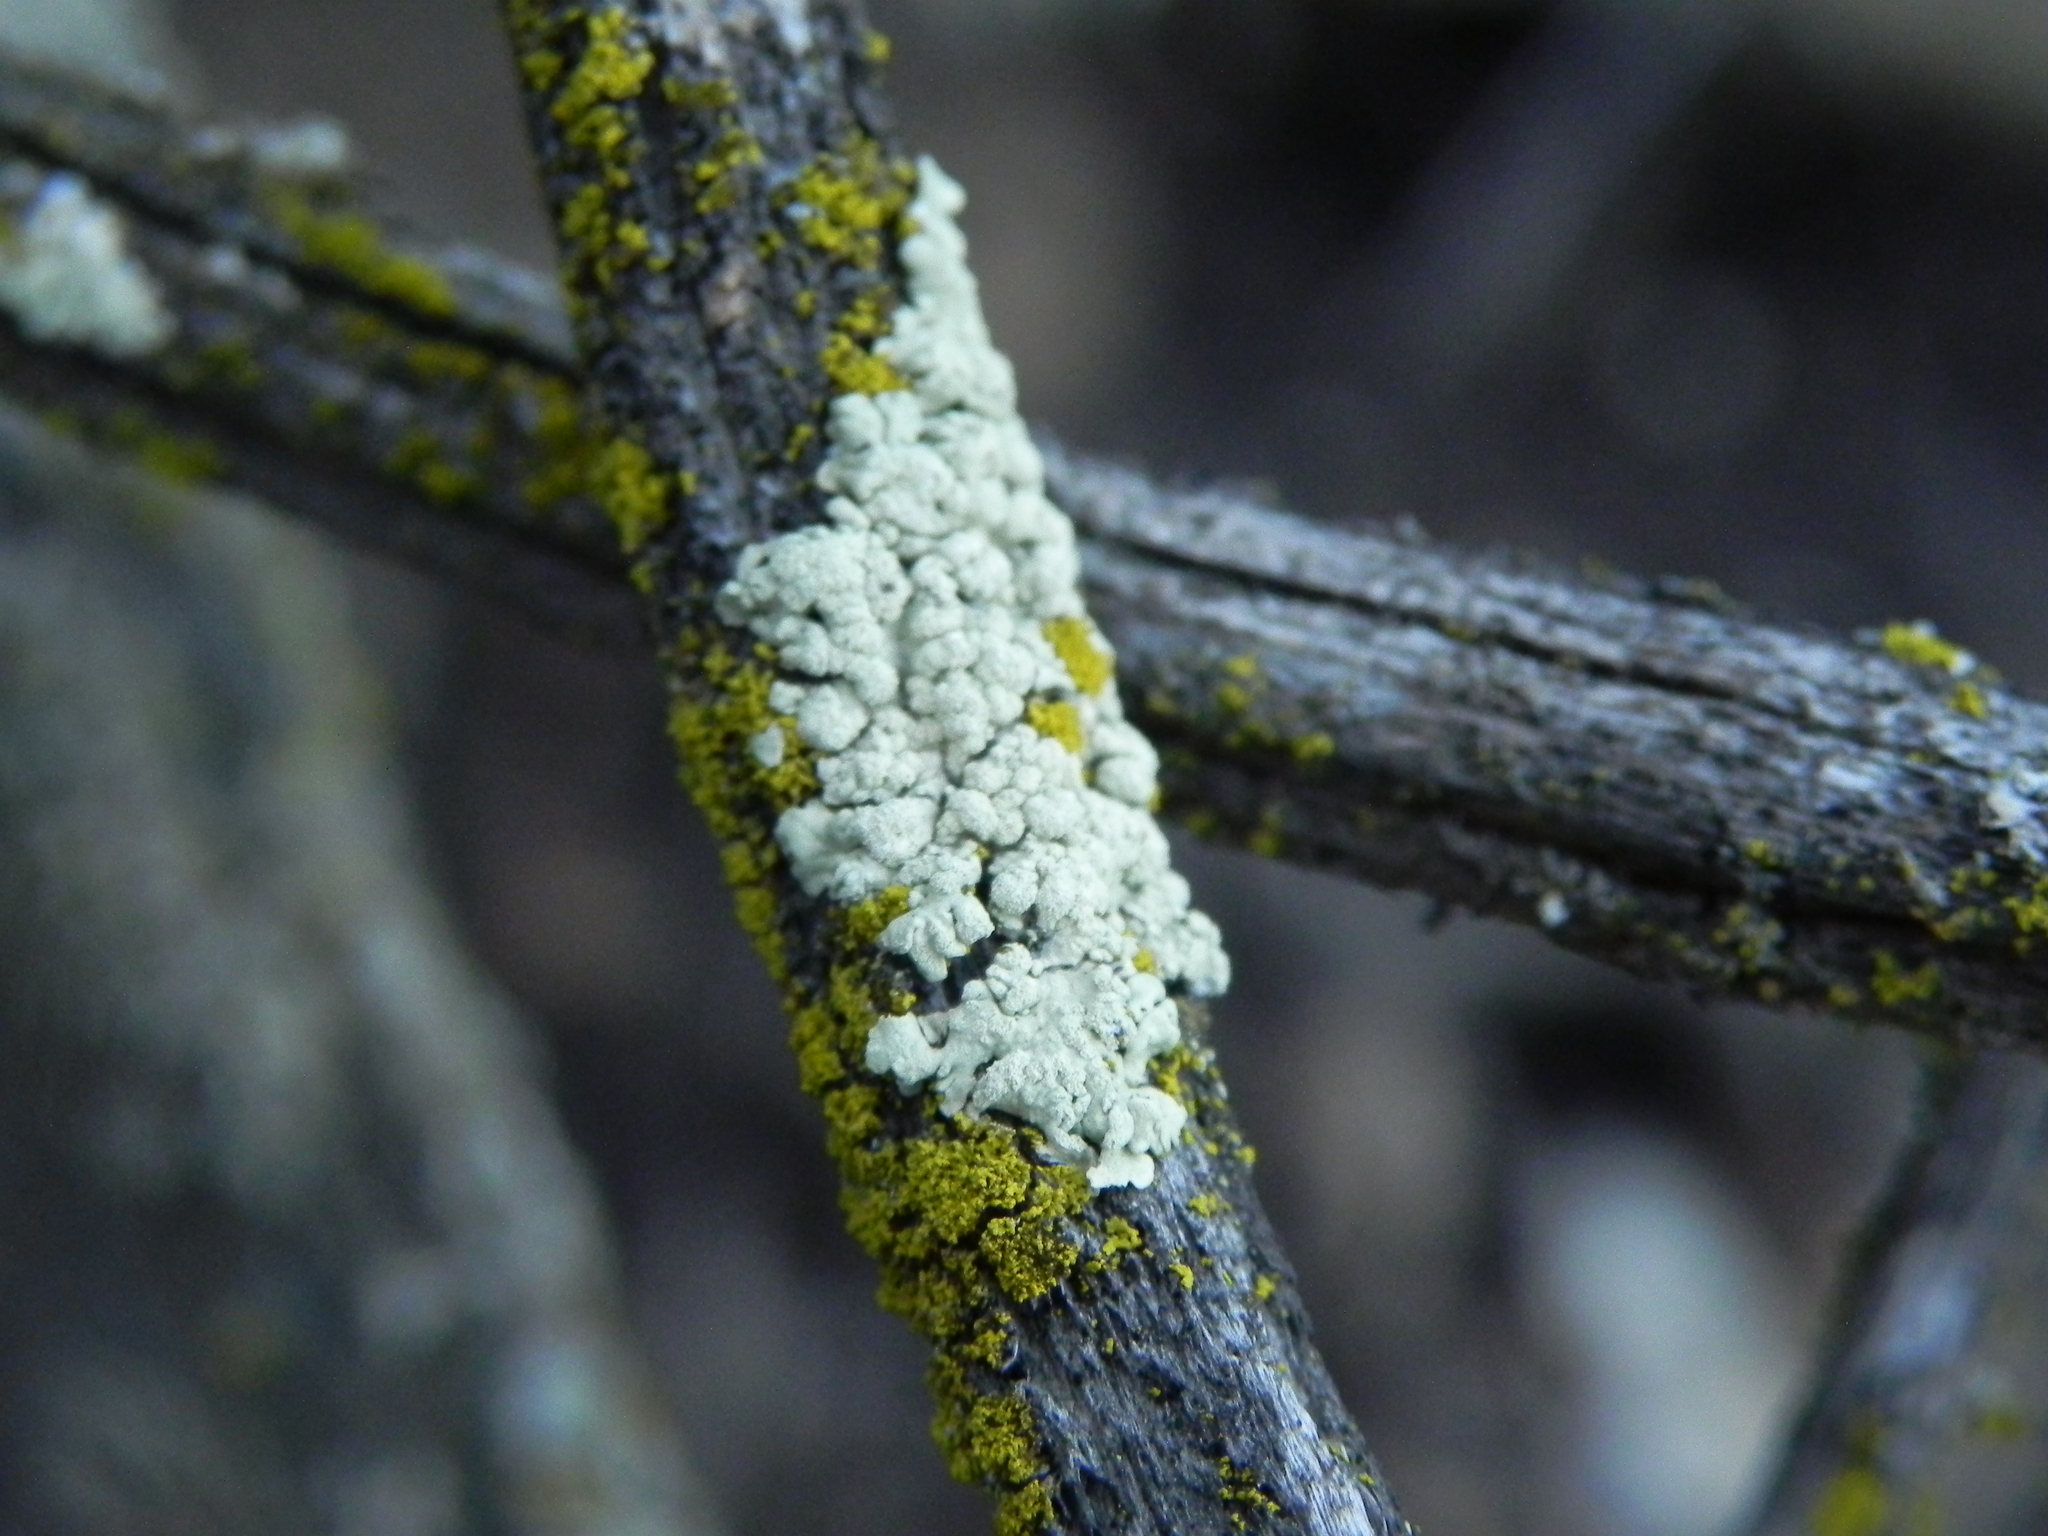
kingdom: Fungi
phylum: Ascomycota
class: Lecanoromycetes
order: Lecanorales
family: Parmeliaceae
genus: Flavoparmelia
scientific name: Flavoparmelia subcapitata
